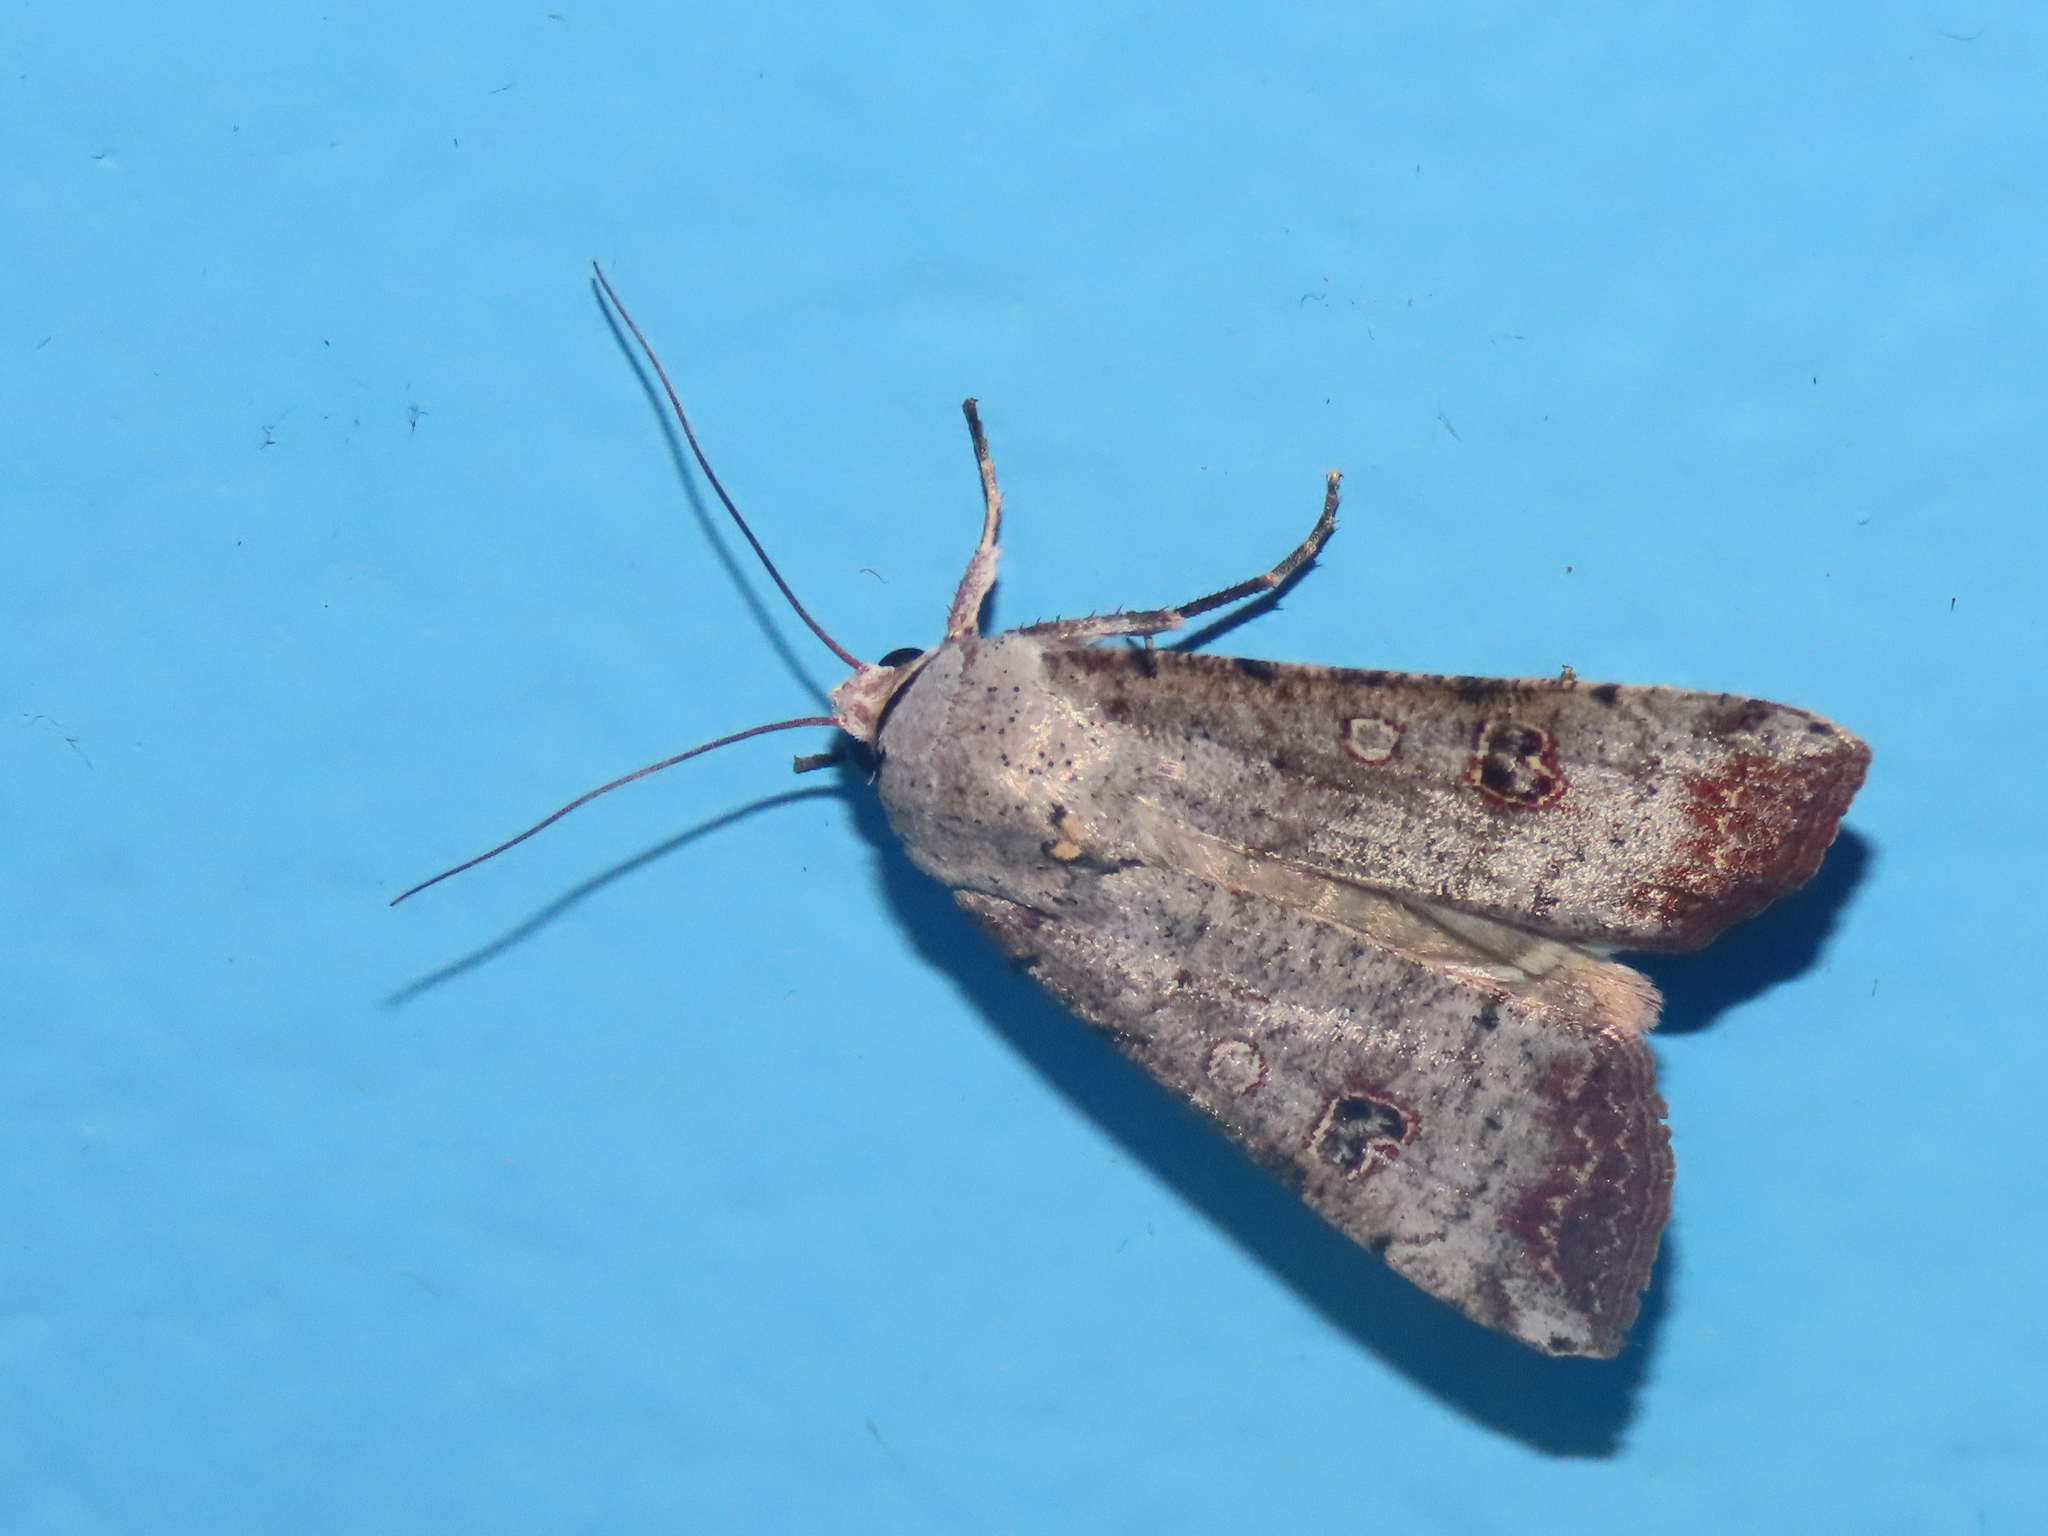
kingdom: Animalia
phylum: Arthropoda
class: Insecta
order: Lepidoptera
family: Noctuidae
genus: Anicla
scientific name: Anicla infecta
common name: Green cutworm
